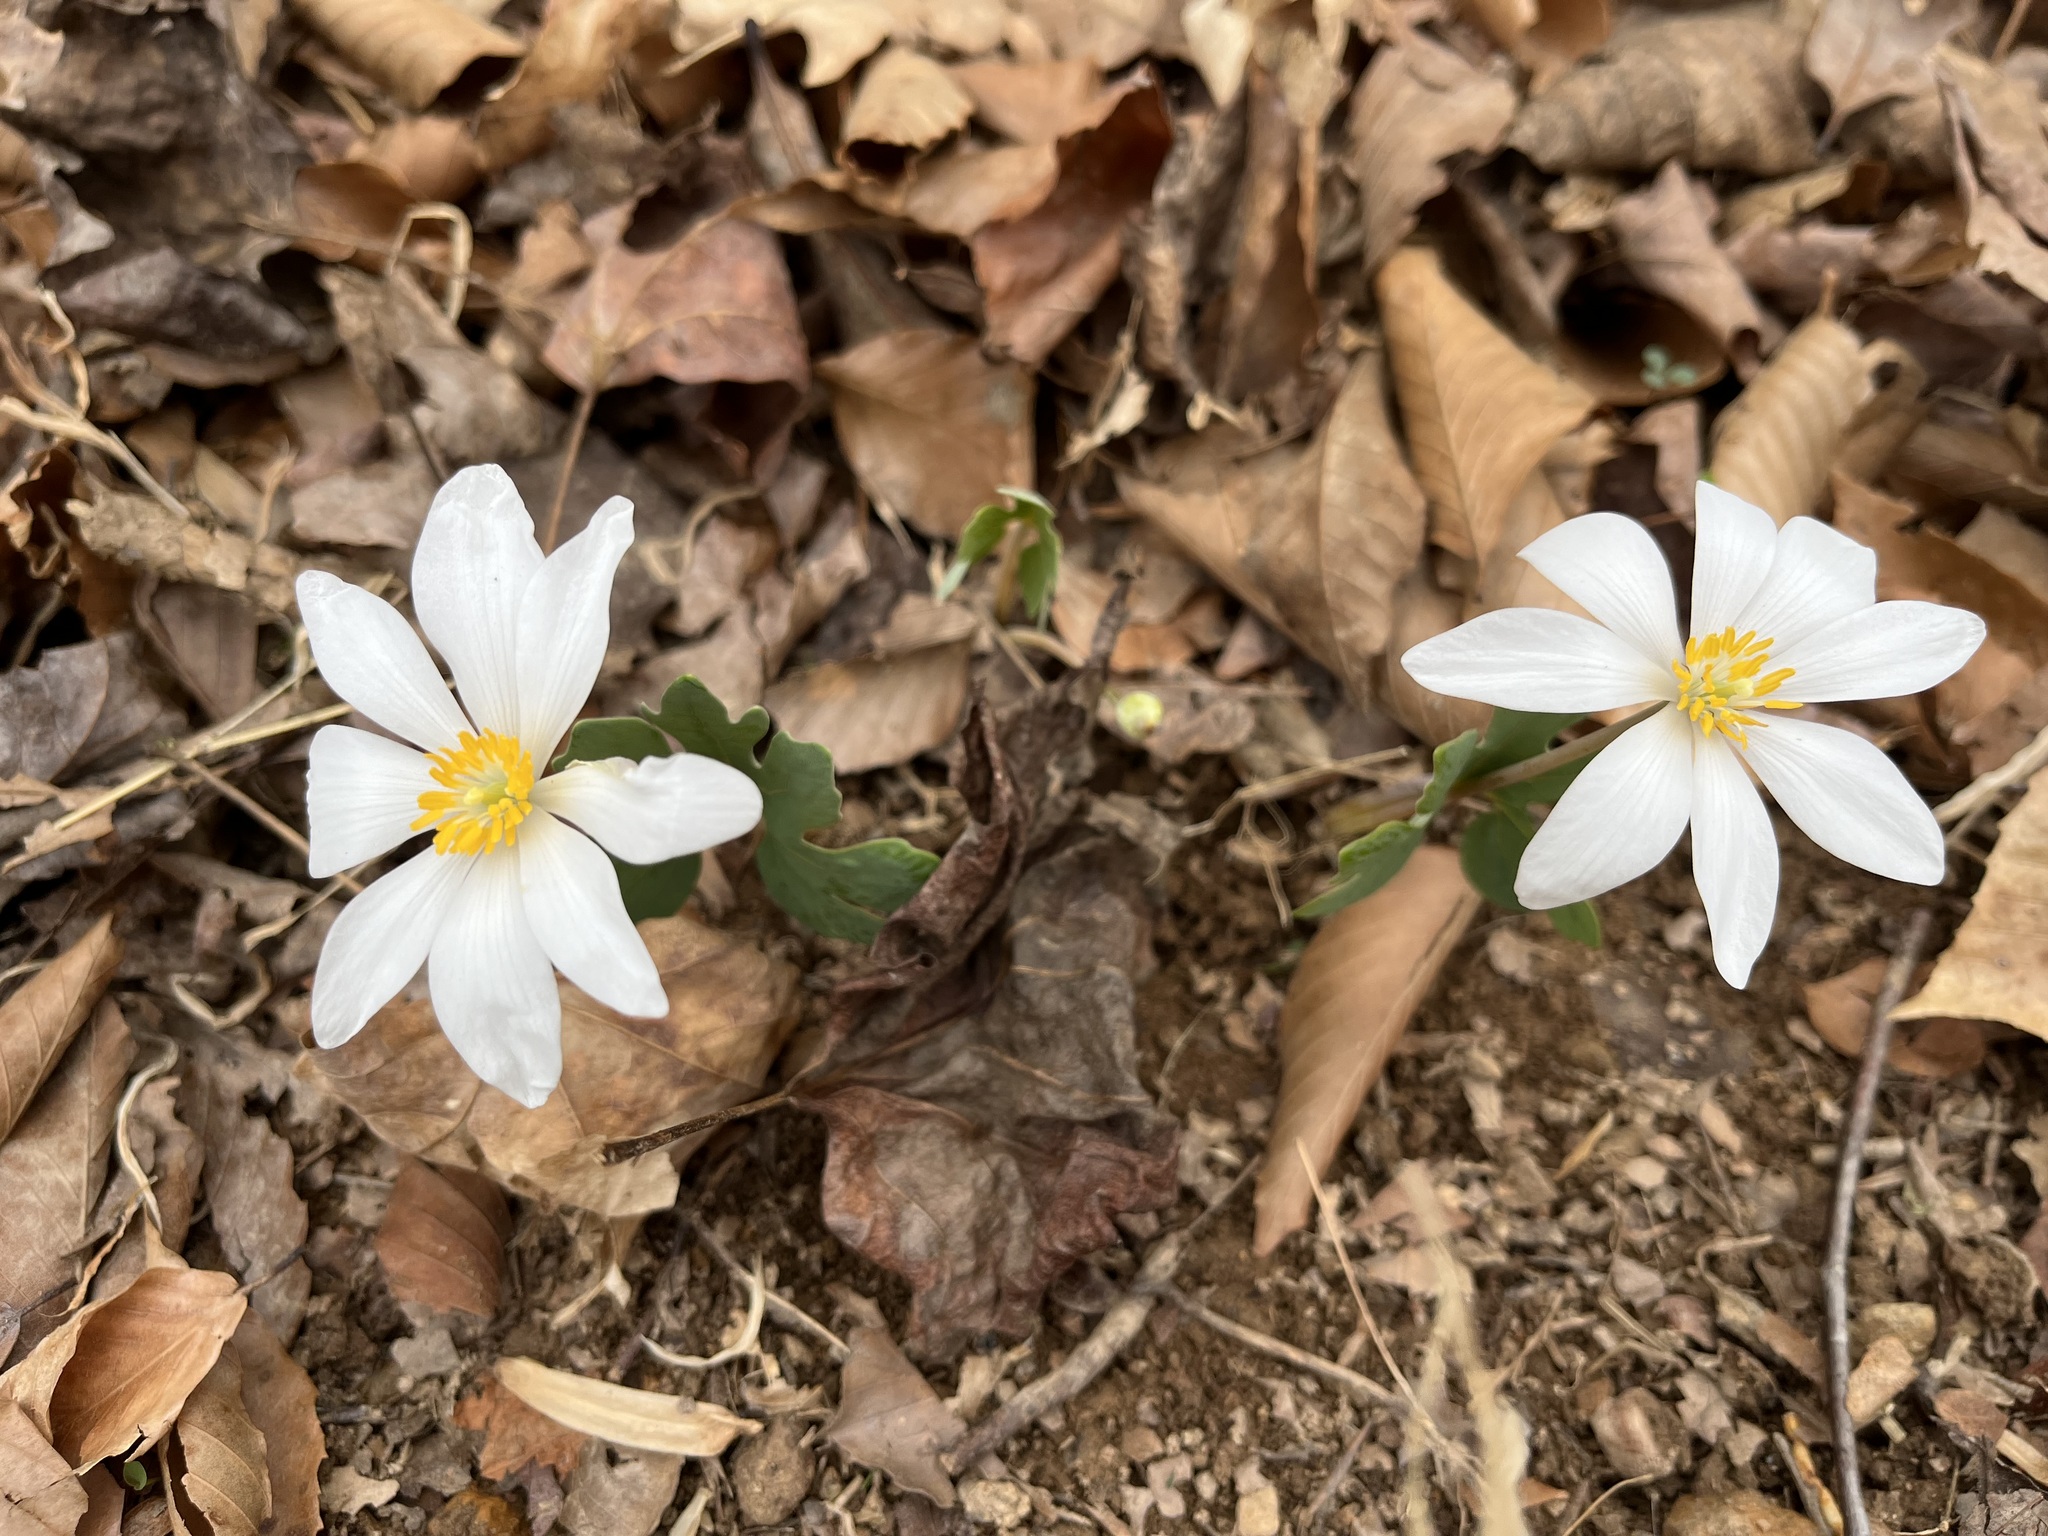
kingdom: Plantae
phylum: Tracheophyta
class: Magnoliopsida
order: Ranunculales
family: Papaveraceae
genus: Sanguinaria
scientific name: Sanguinaria canadensis
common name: Bloodroot
